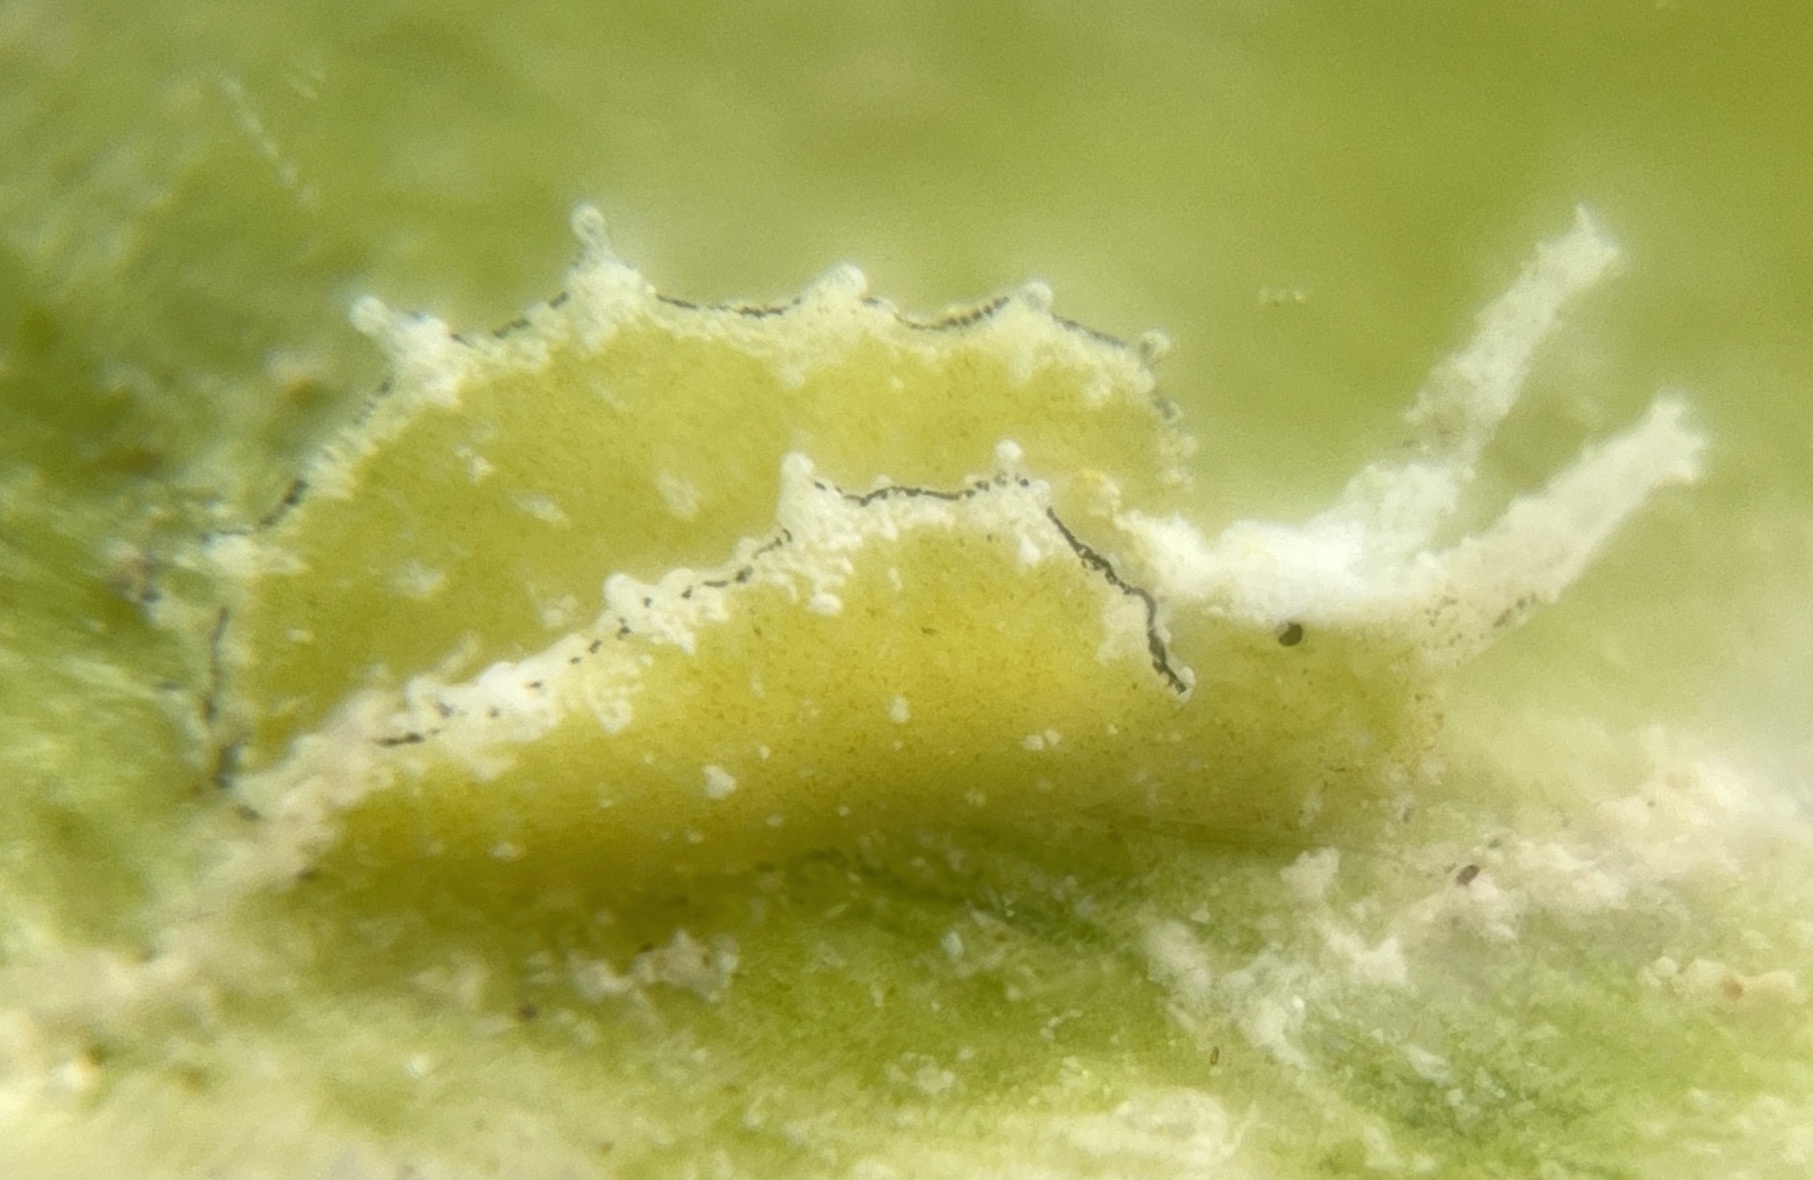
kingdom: Animalia
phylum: Mollusca
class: Gastropoda
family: Plakobranchidae
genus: Elysia
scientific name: Elysia subornata
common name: Ruffled elysia
